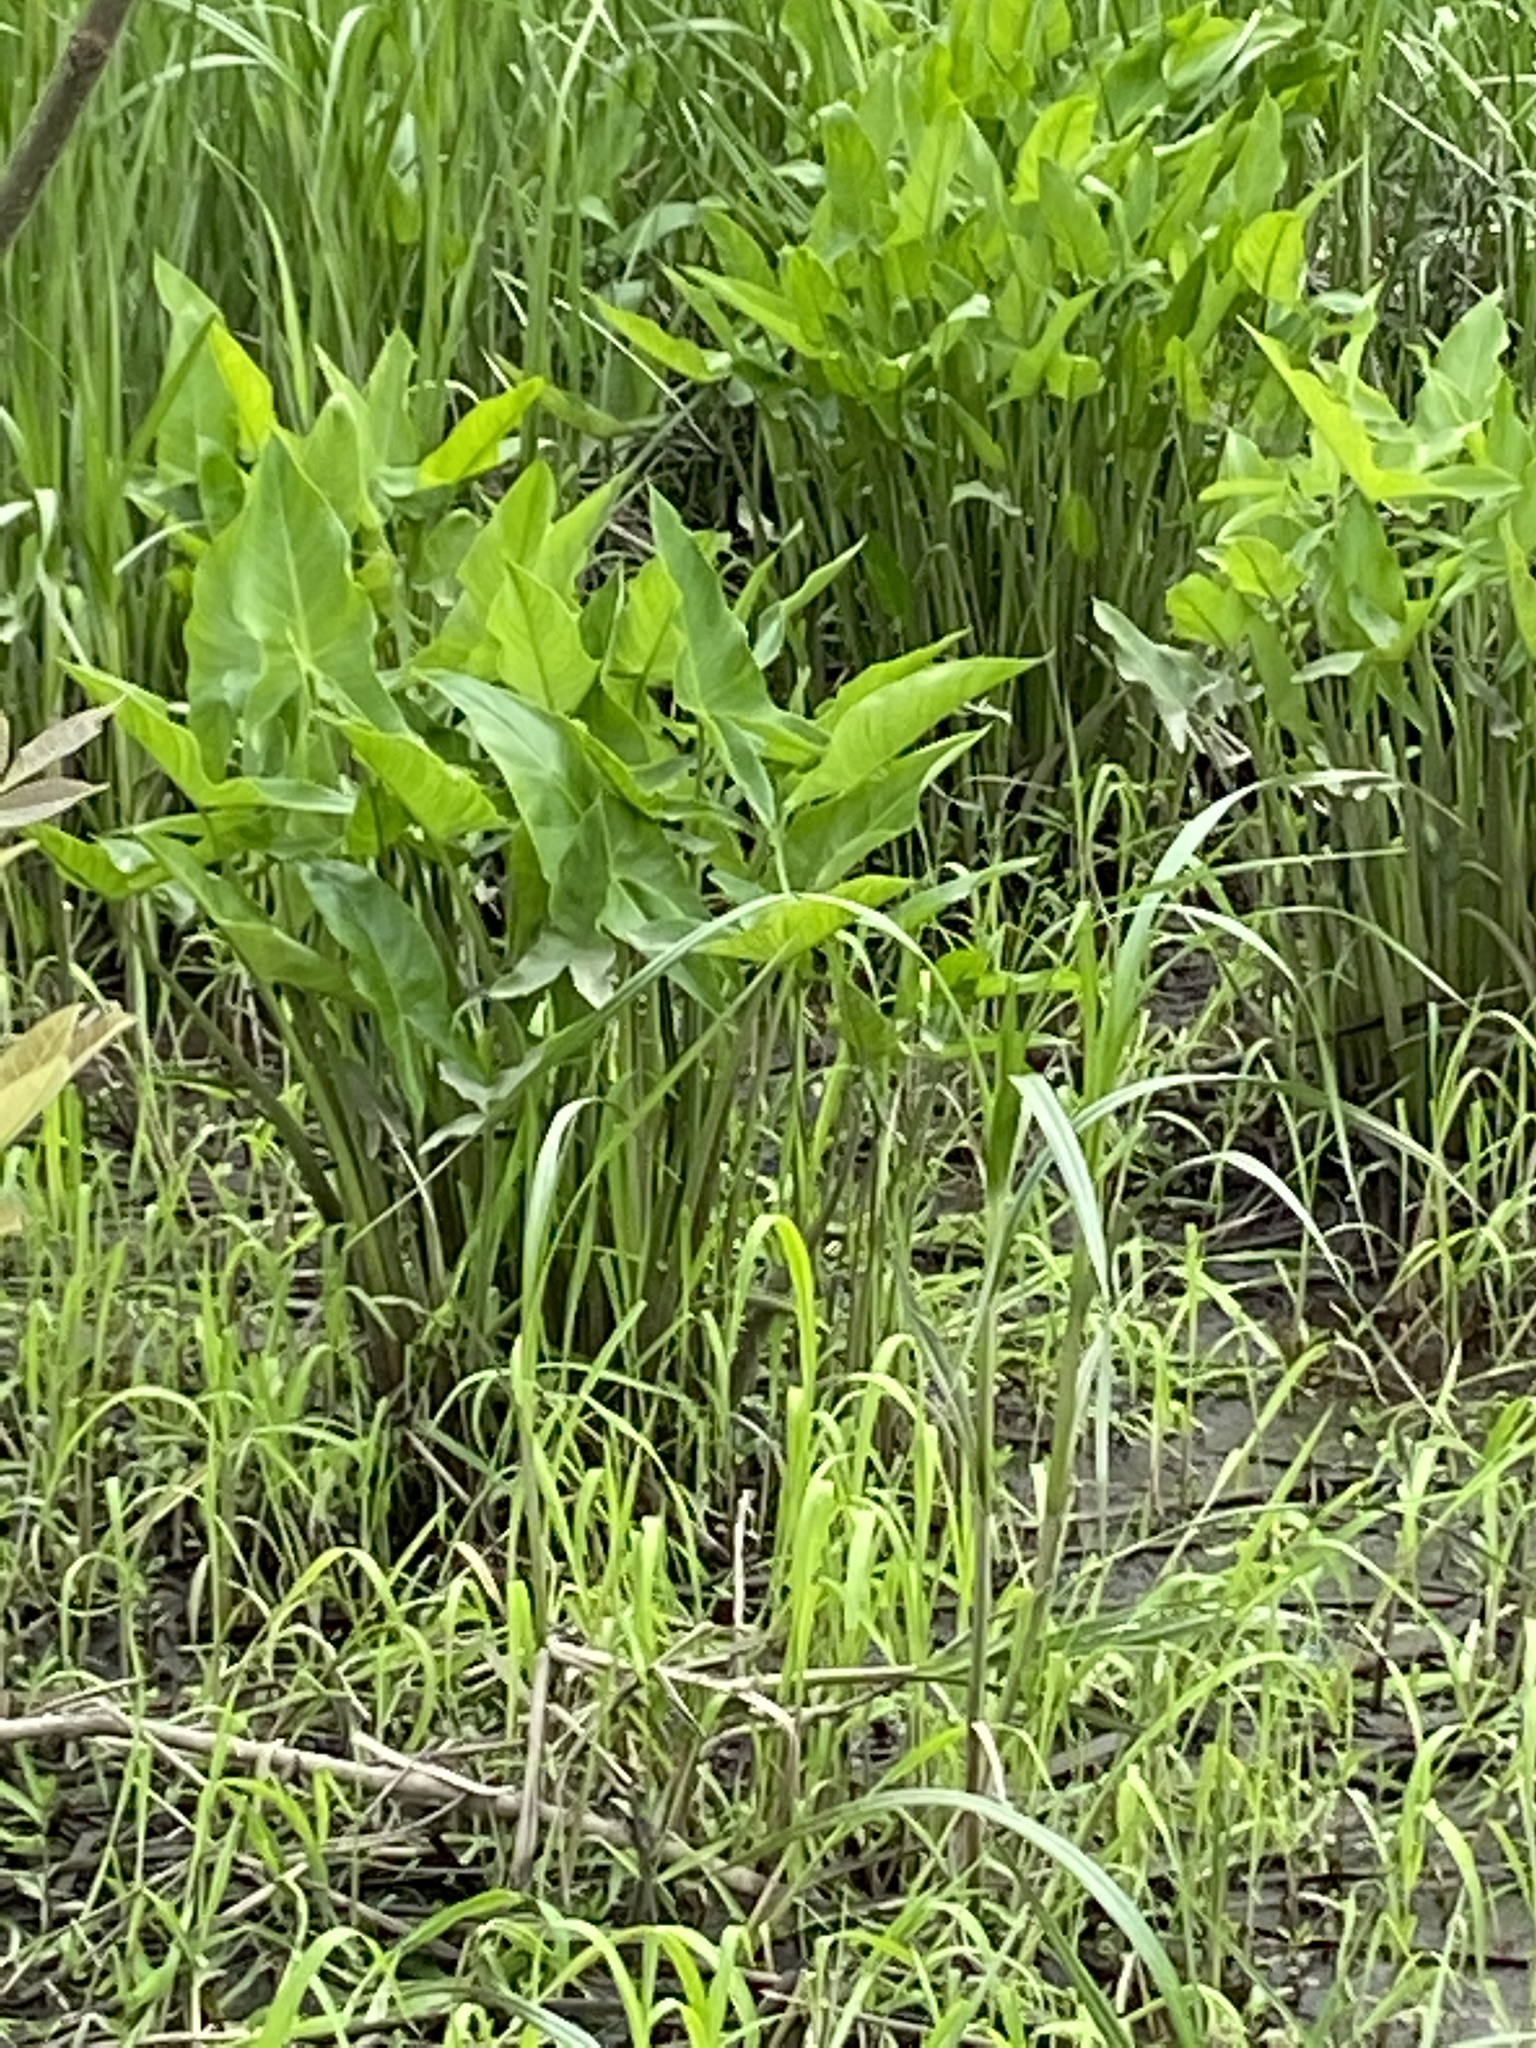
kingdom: Plantae
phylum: Tracheophyta
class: Liliopsida
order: Alismatales
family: Araceae
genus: Peltandra
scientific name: Peltandra virginica
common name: Arrow arum
